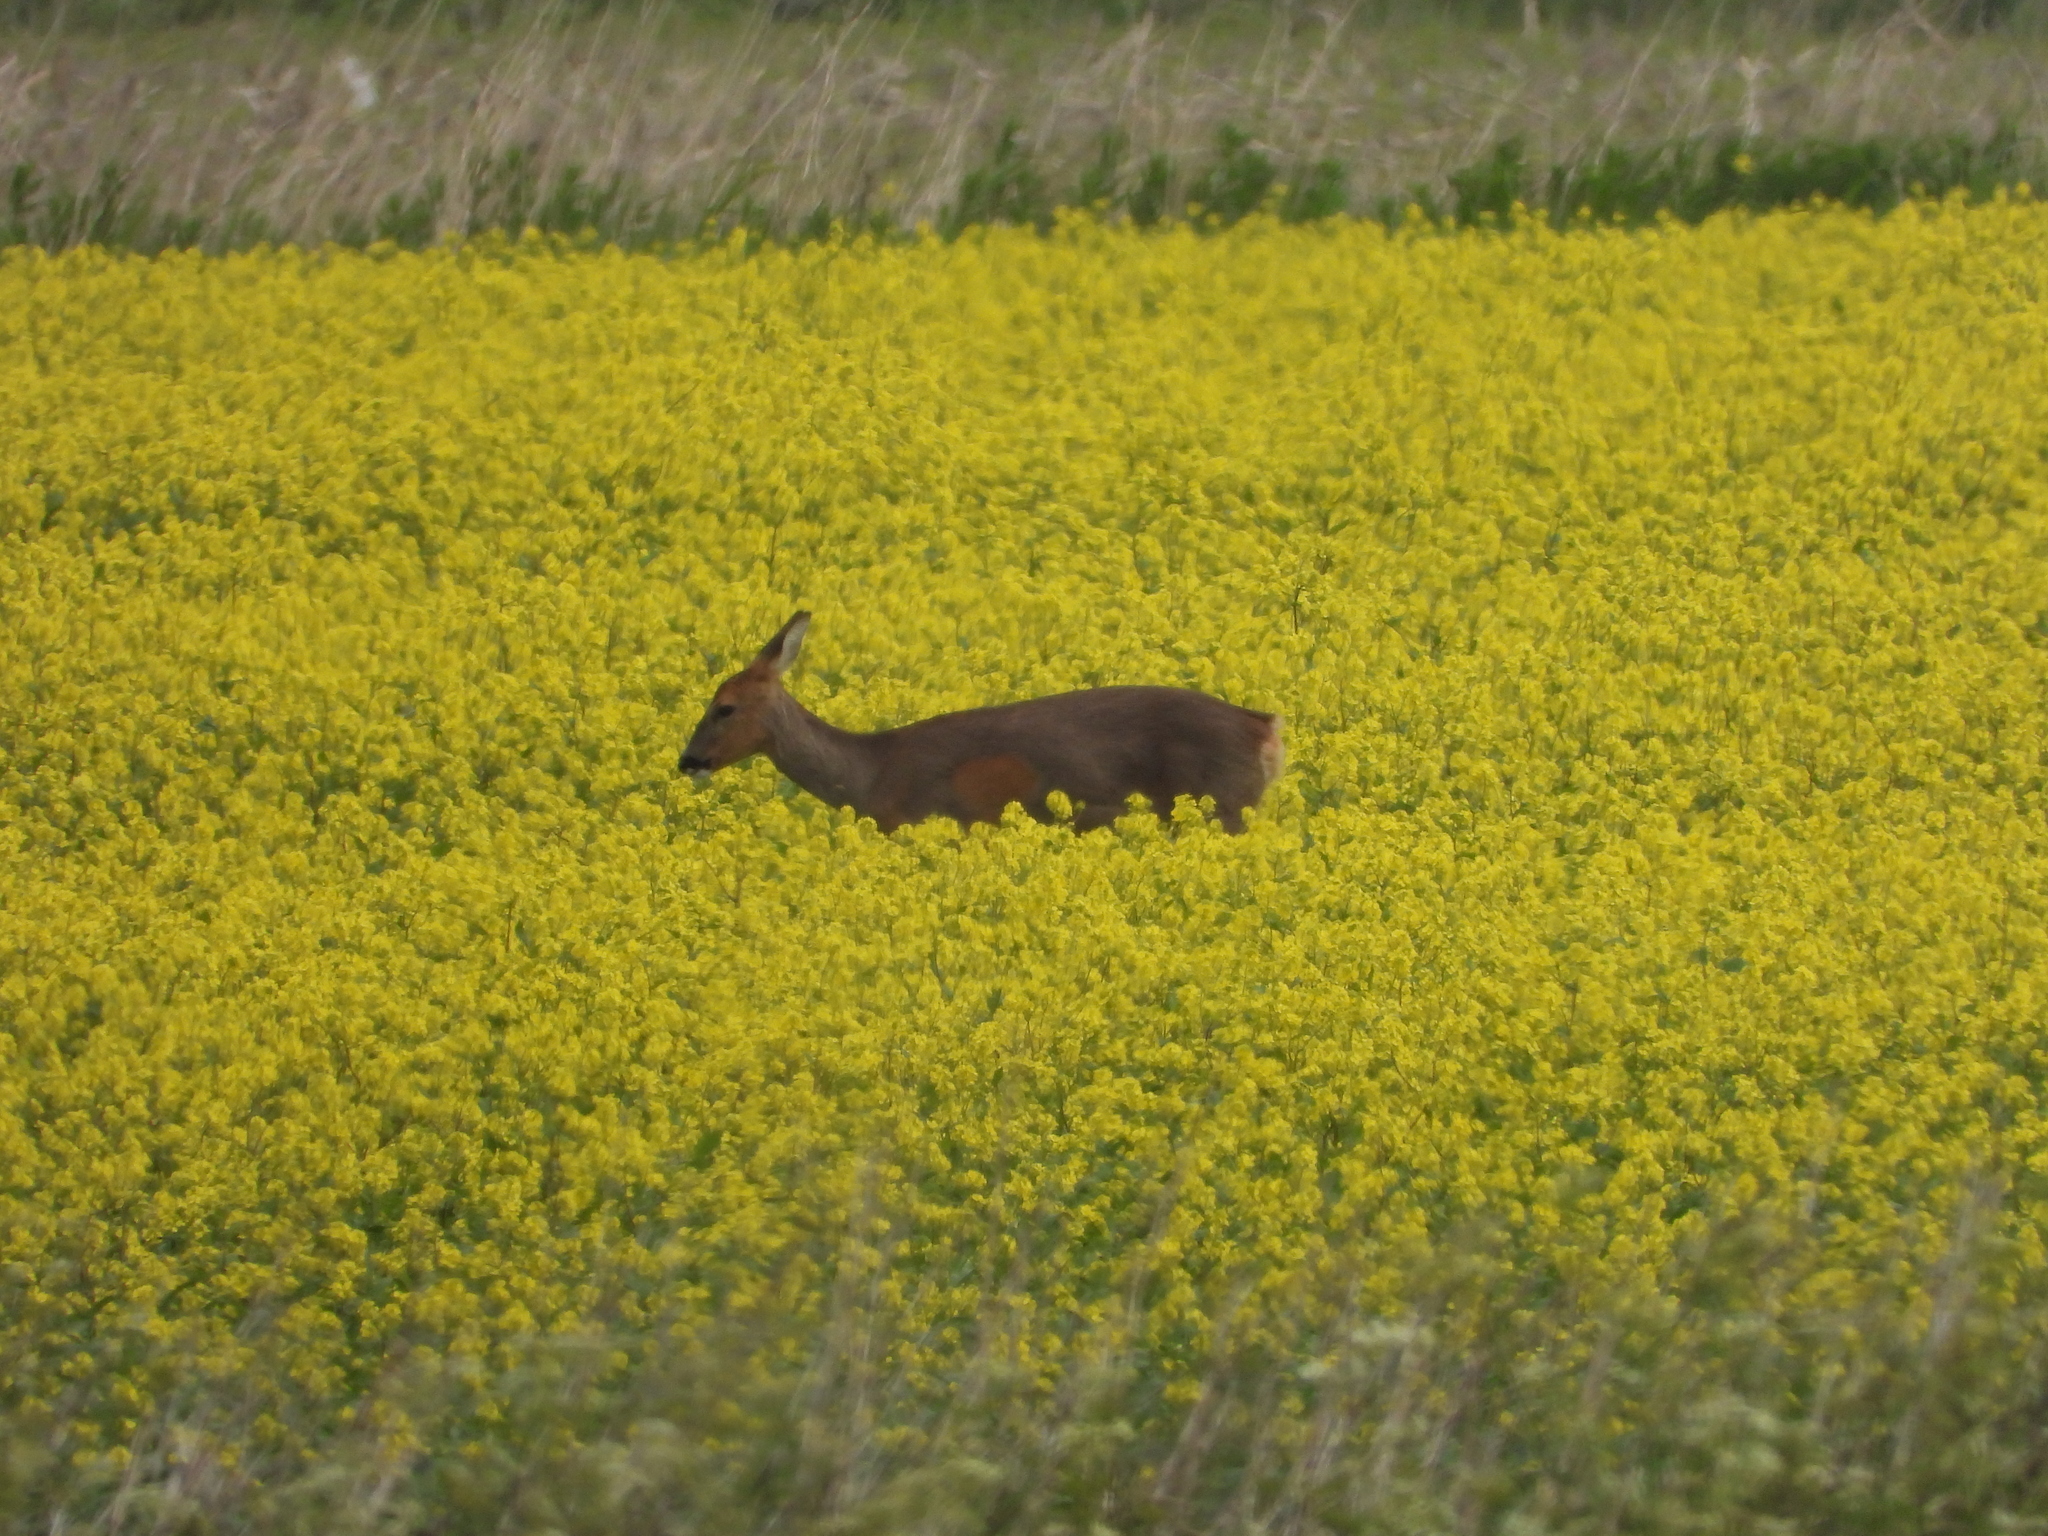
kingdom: Animalia
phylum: Chordata
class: Mammalia
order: Artiodactyla
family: Cervidae
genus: Capreolus
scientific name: Capreolus capreolus
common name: Western roe deer
